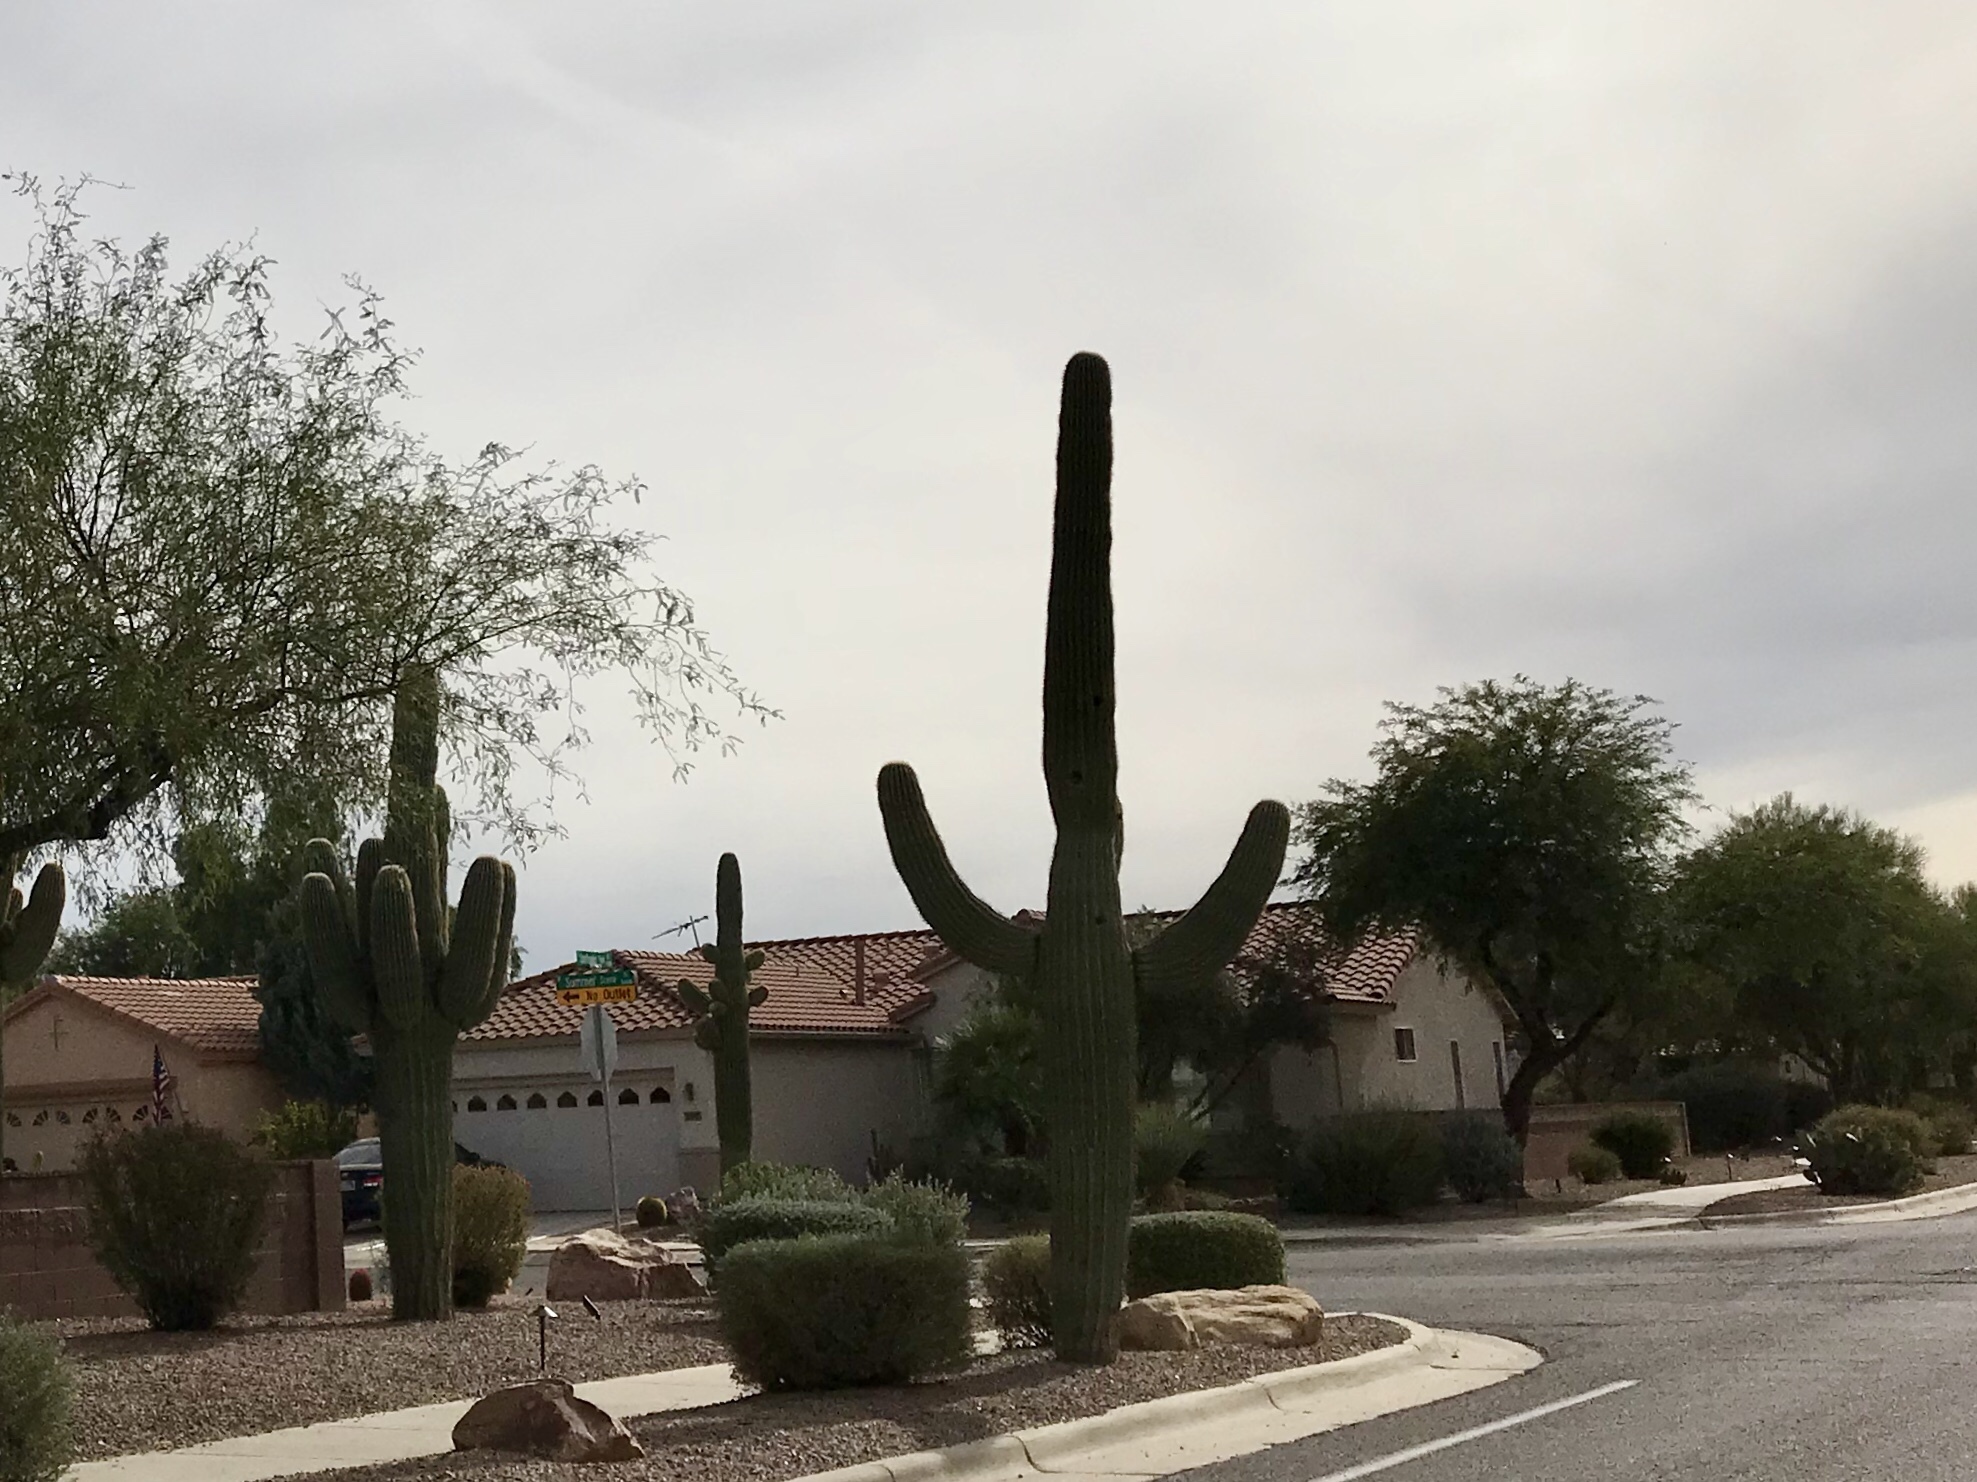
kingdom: Plantae
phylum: Tracheophyta
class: Magnoliopsida
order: Caryophyllales
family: Cactaceae
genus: Carnegiea
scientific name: Carnegiea gigantea
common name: Saguaro
